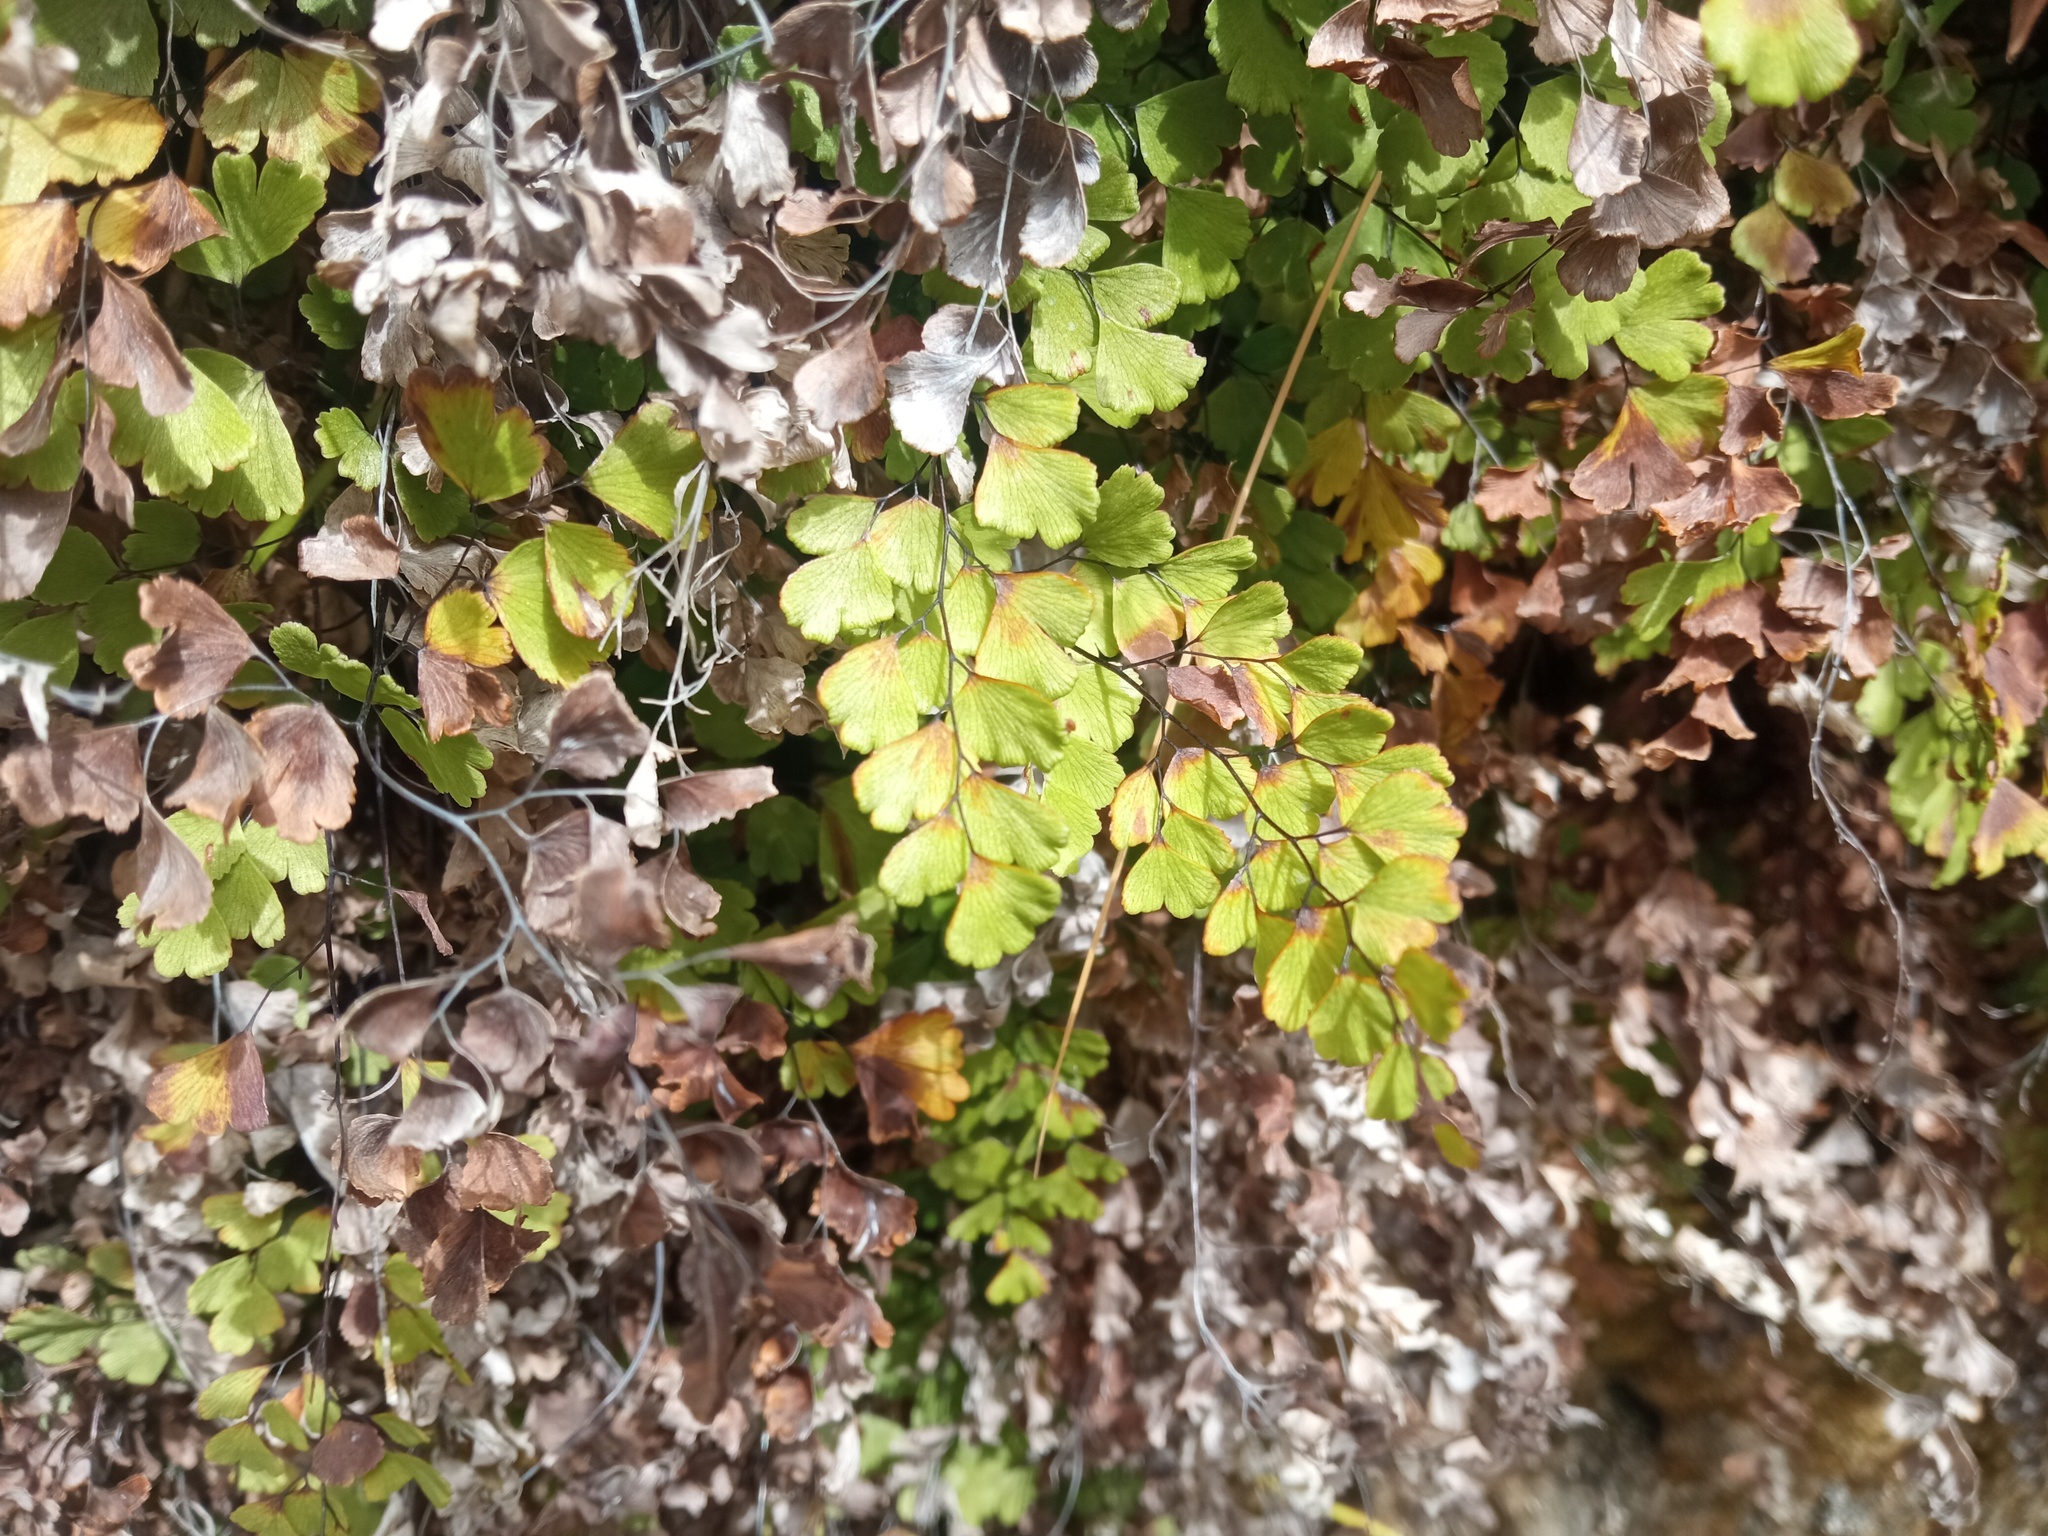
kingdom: Plantae
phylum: Tracheophyta
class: Polypodiopsida
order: Polypodiales
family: Pteridaceae
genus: Adiantum
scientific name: Adiantum capillus-veneris
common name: Maidenhair fern
